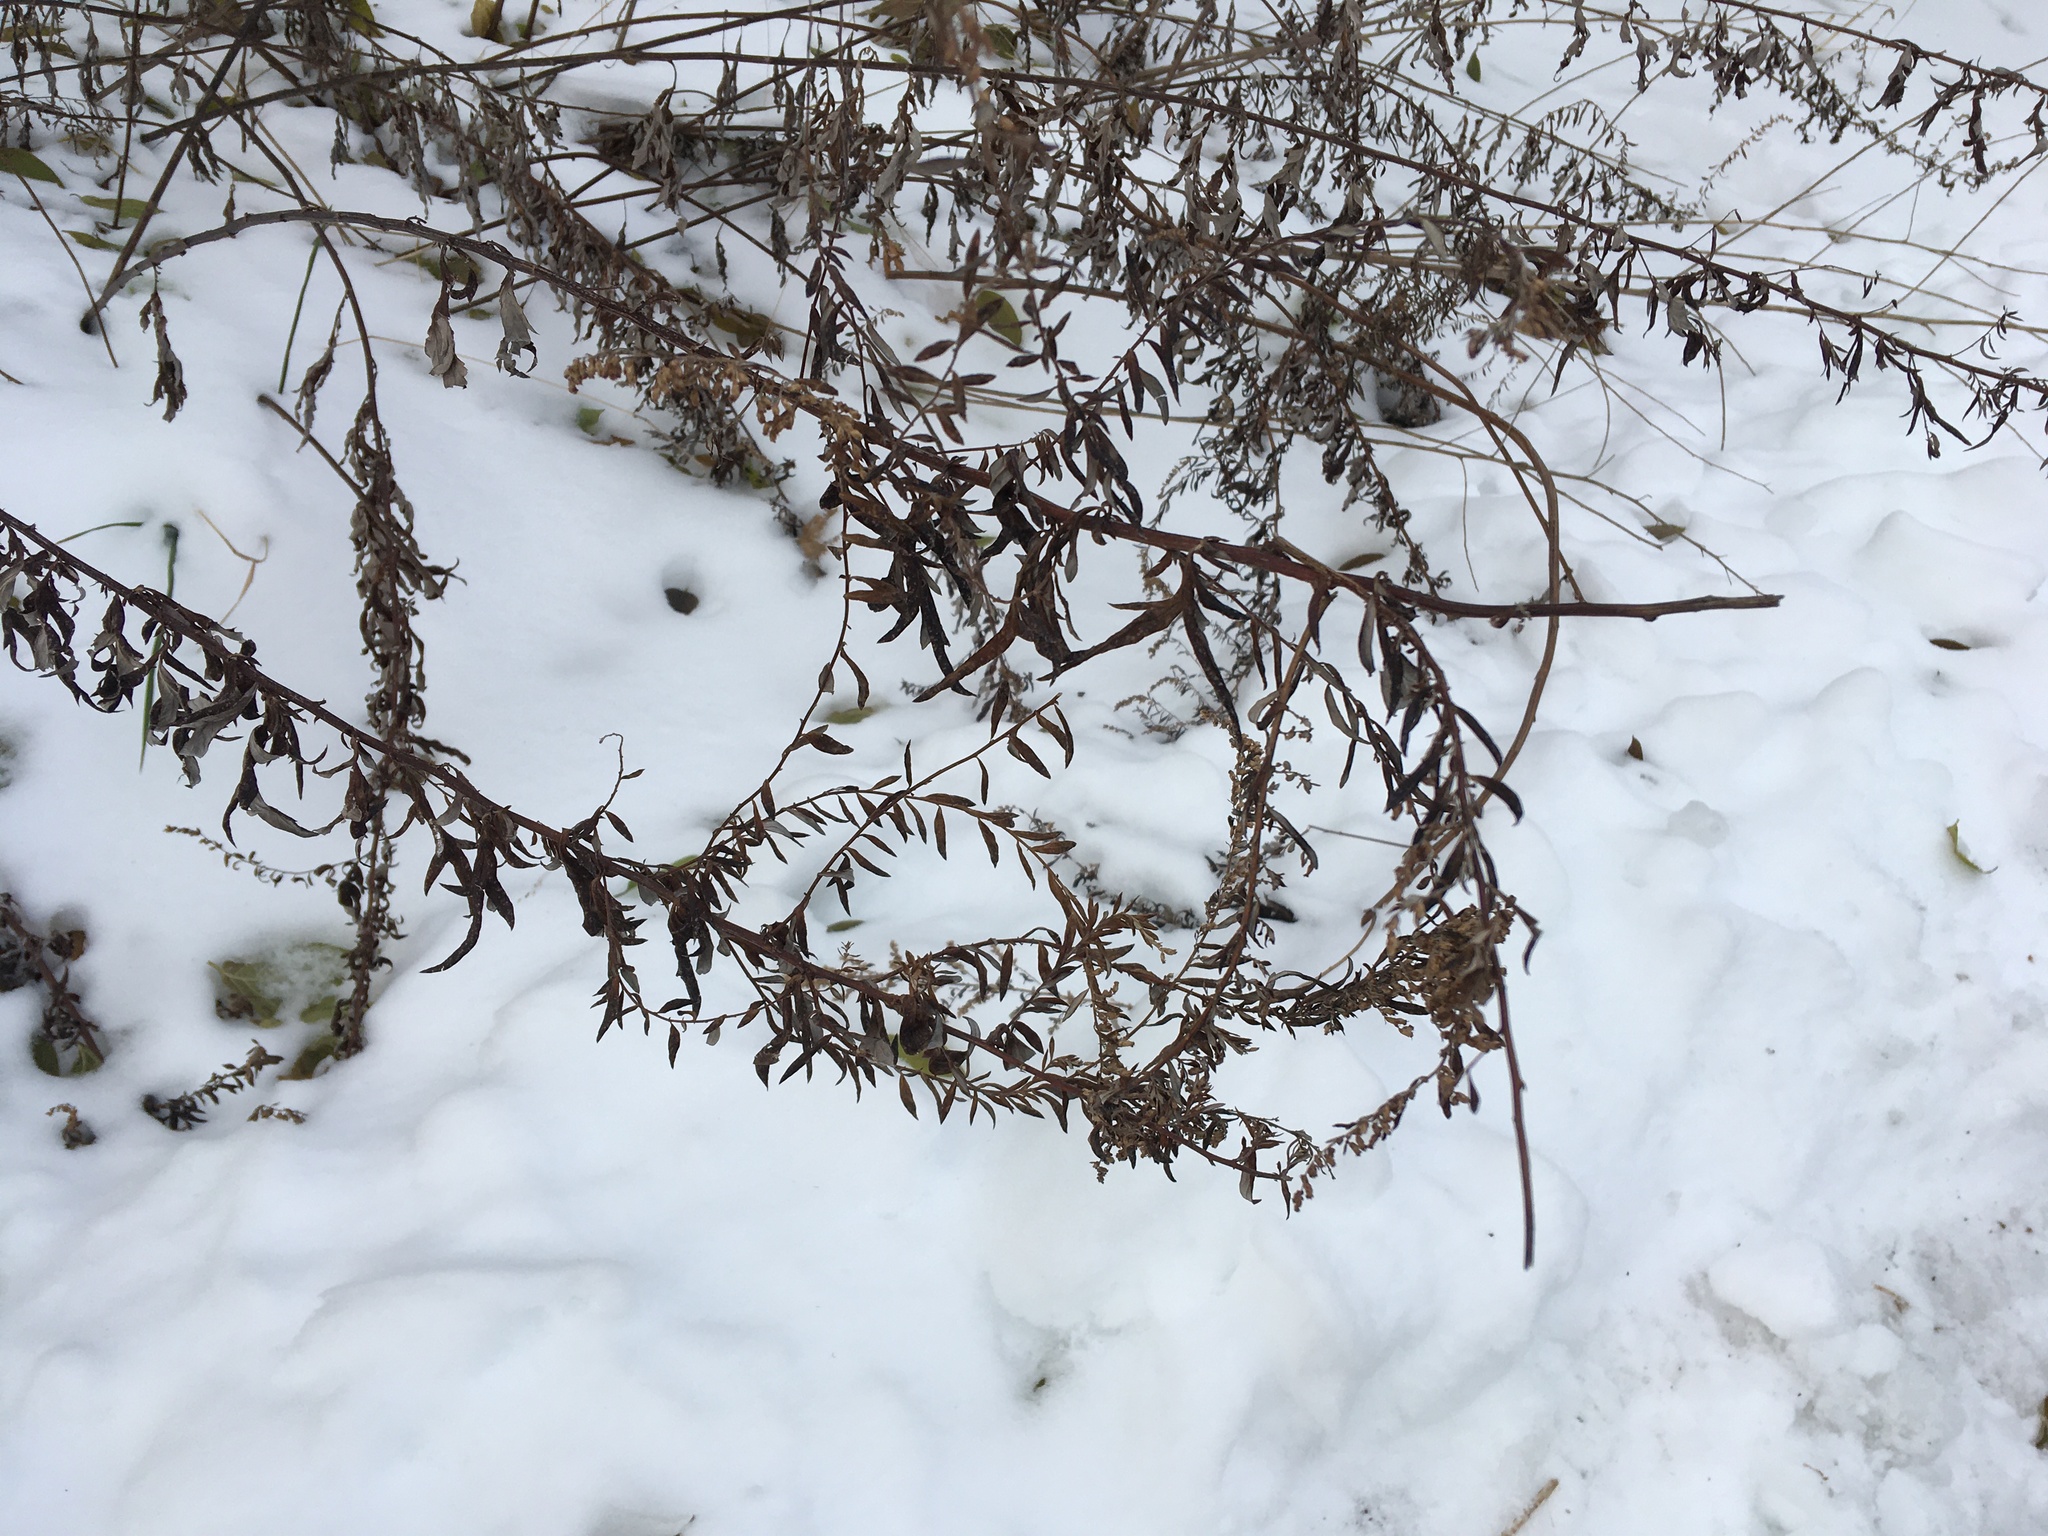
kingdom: Plantae
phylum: Tracheophyta
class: Magnoliopsida
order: Asterales
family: Asteraceae
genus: Artemisia
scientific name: Artemisia vulgaris
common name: Mugwort
